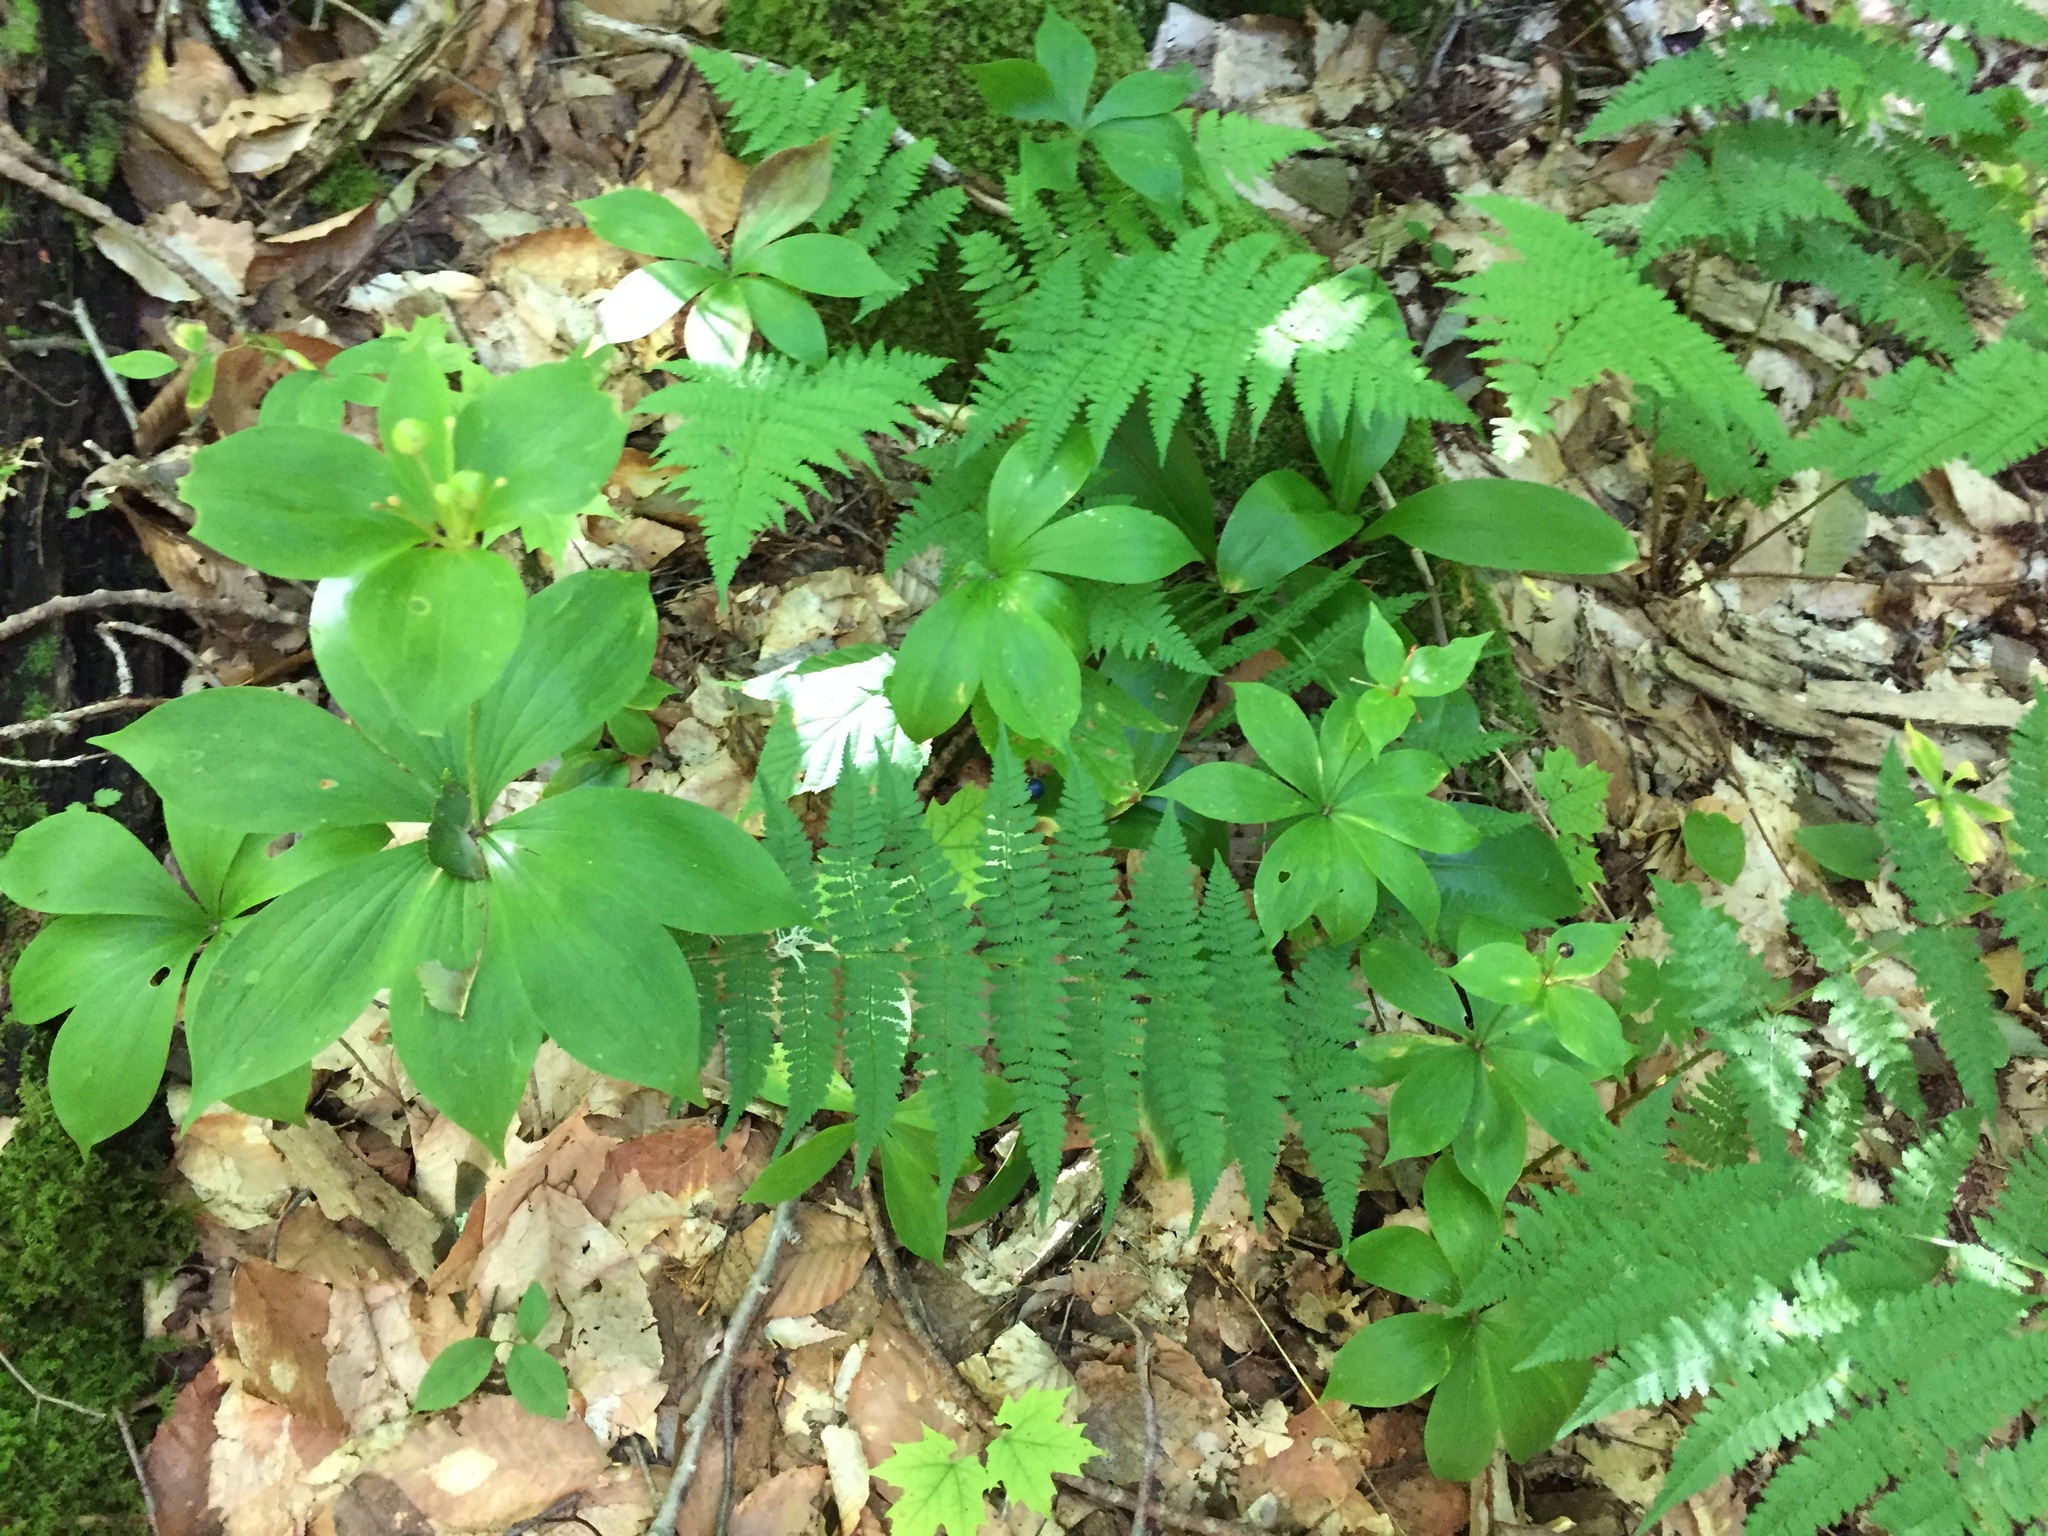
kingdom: Plantae
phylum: Tracheophyta
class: Liliopsida
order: Liliales
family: Liliaceae
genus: Medeola
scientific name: Medeola virginiana
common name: Indian cucumber-root
